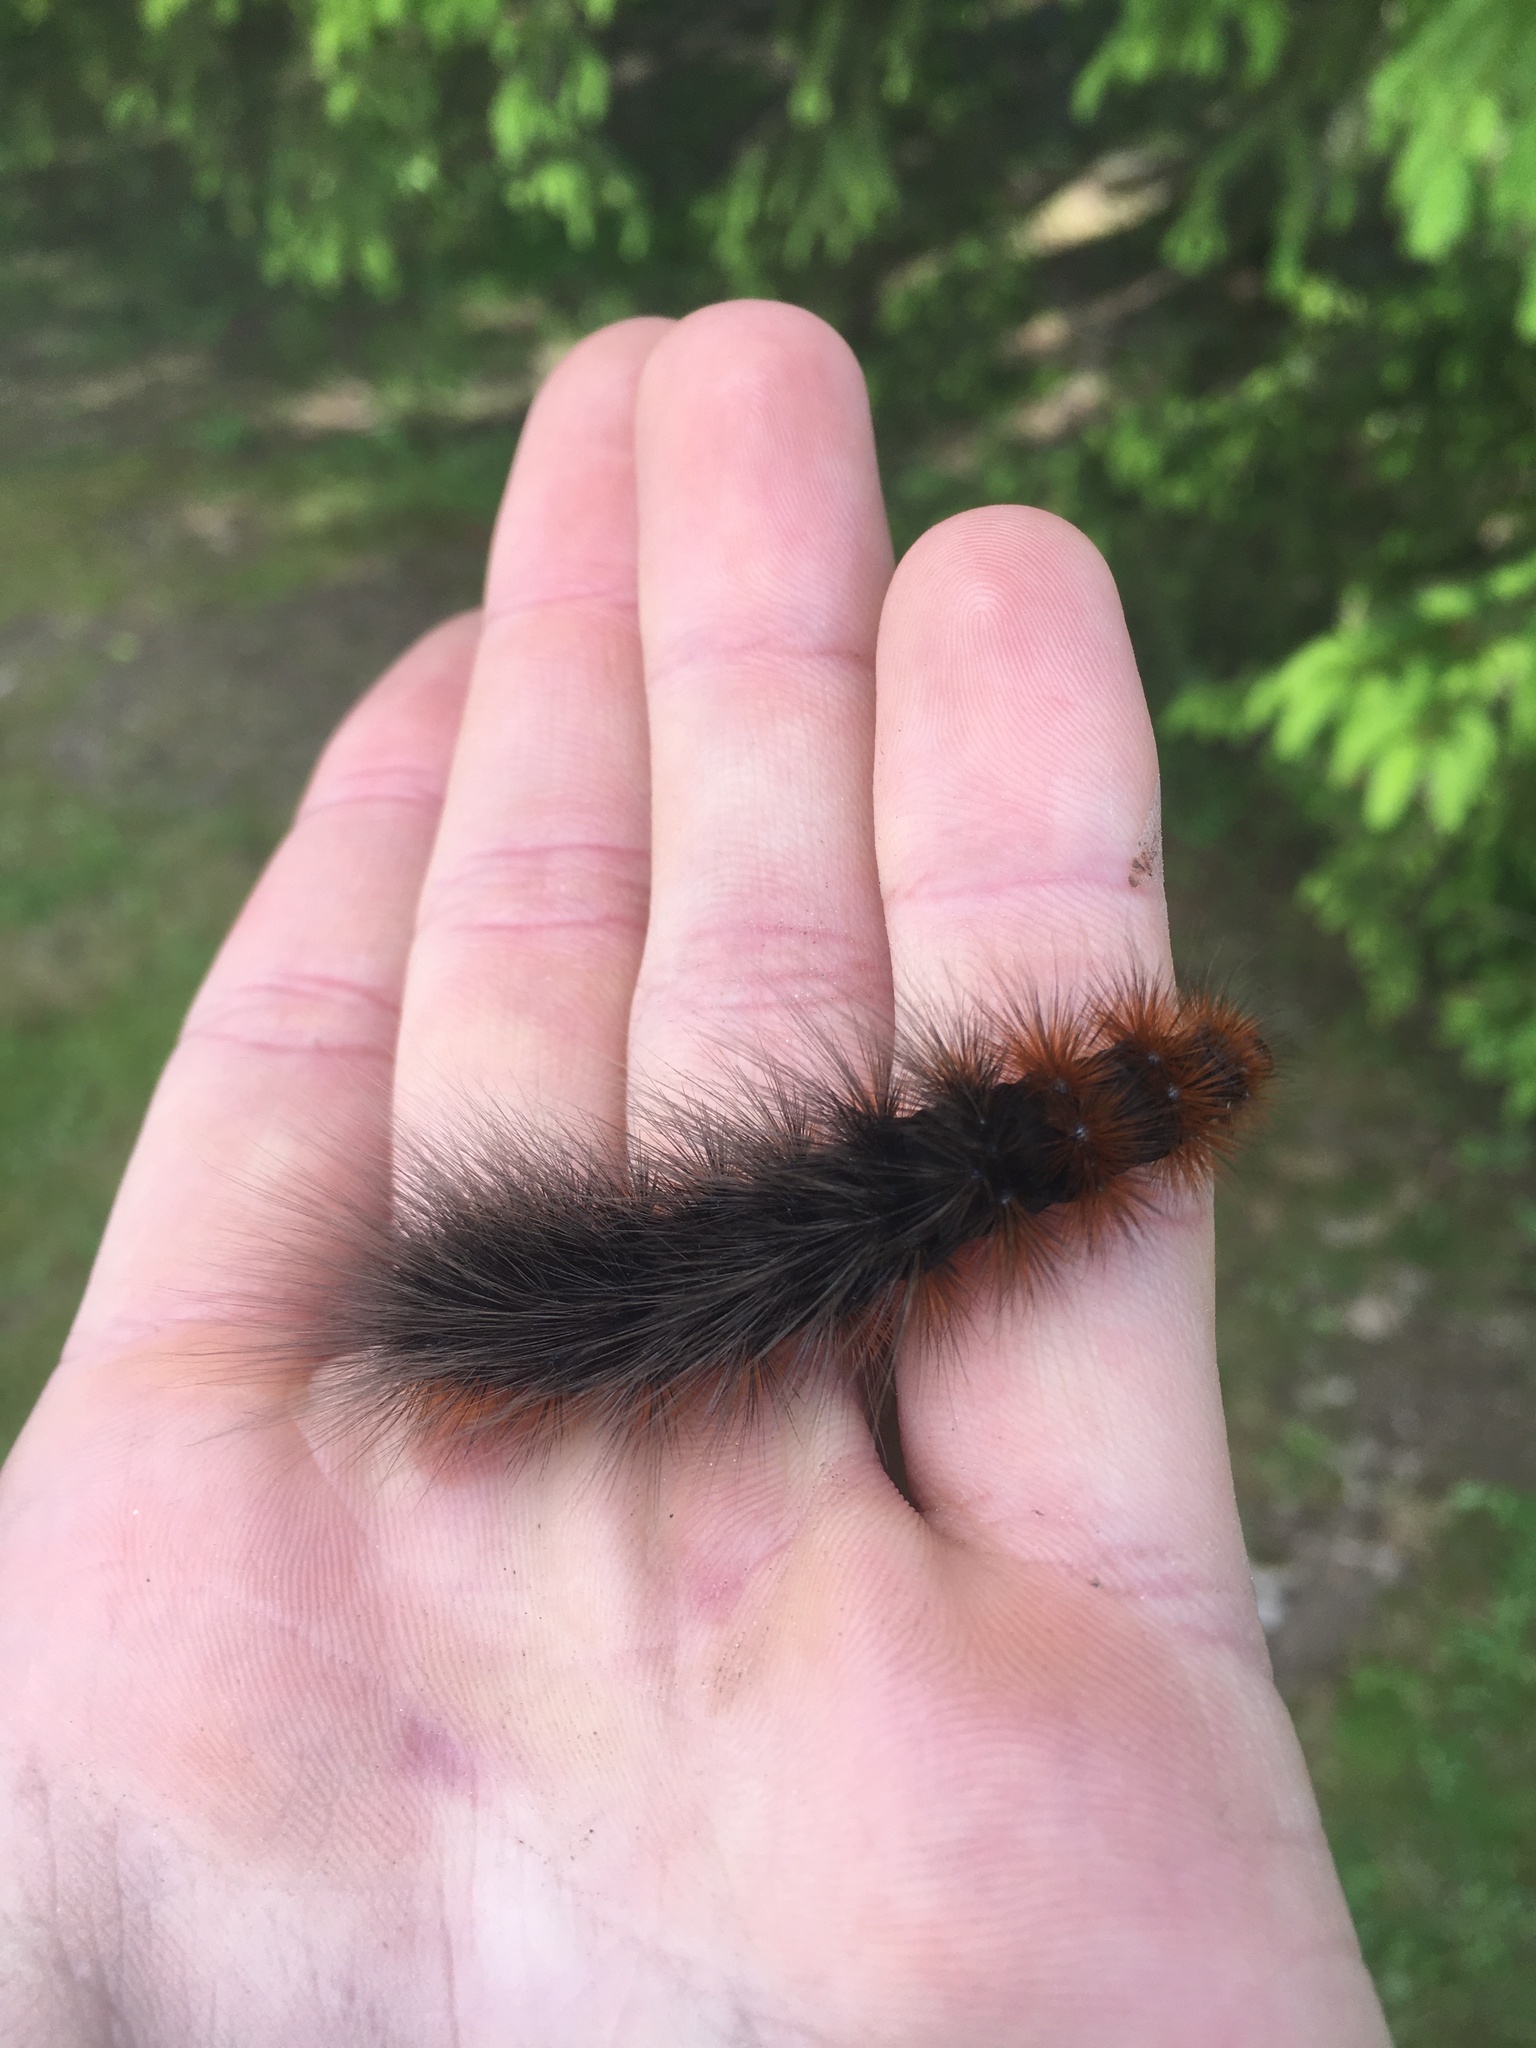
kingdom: Animalia
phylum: Arthropoda
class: Insecta
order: Lepidoptera
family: Erebidae
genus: Arctia
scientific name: Arctia caja
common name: Garden tiger
